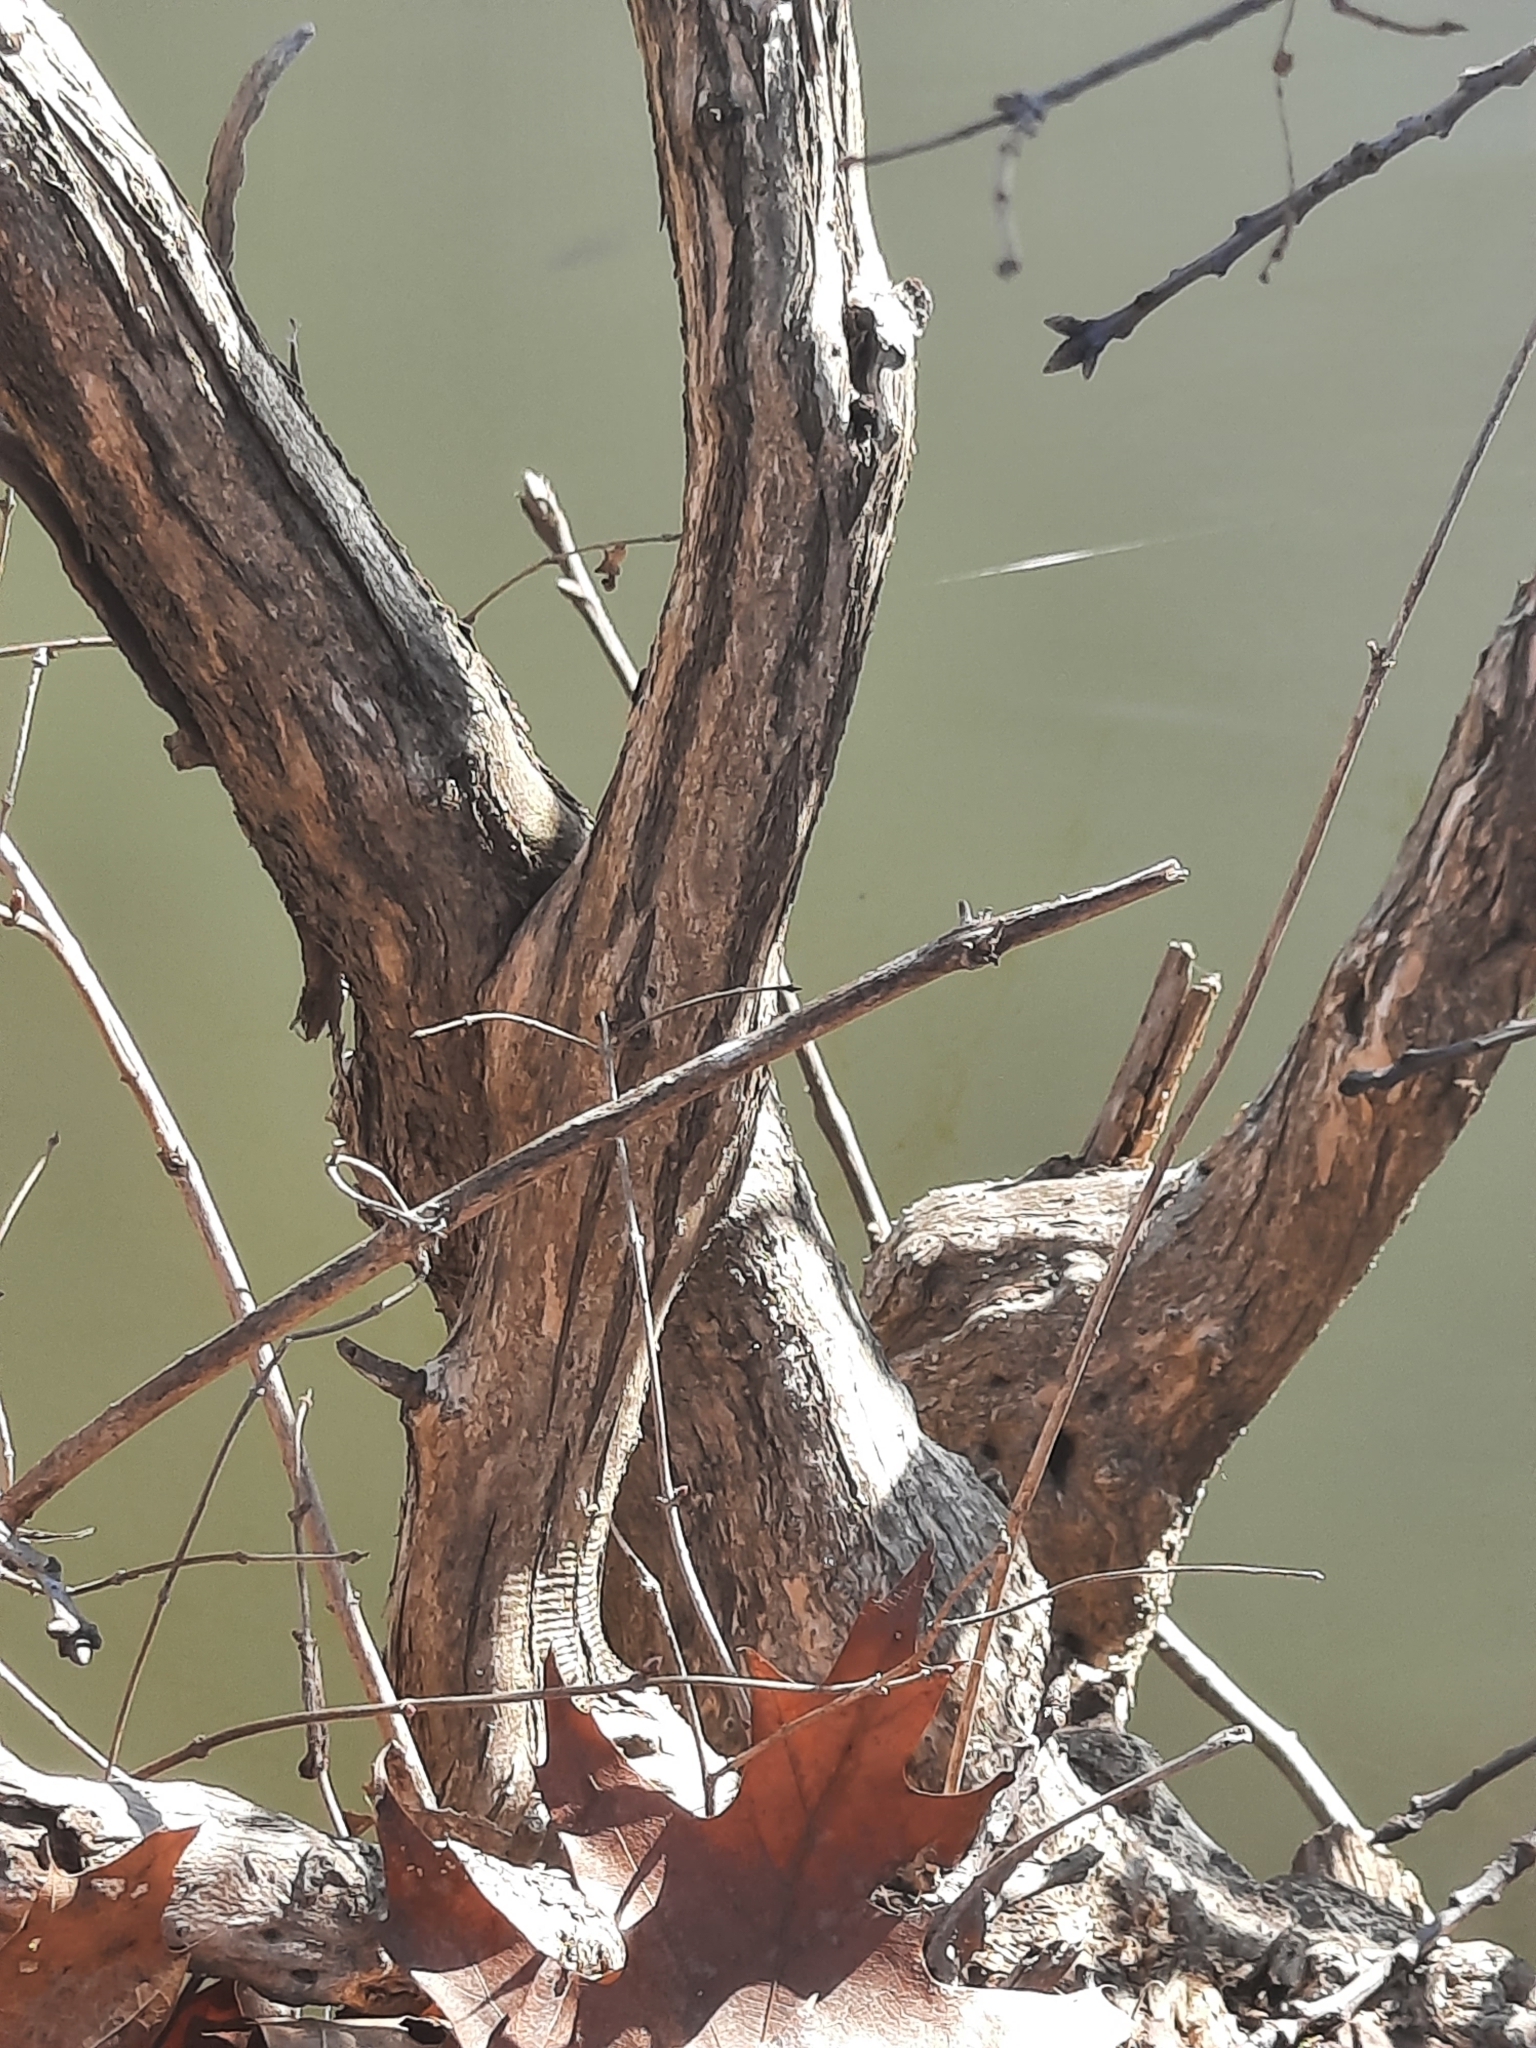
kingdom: Plantae
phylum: Tracheophyta
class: Magnoliopsida
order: Crossosomatales
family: Staphyleaceae
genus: Staphylea
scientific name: Staphylea trifolia
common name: American bladdernut
